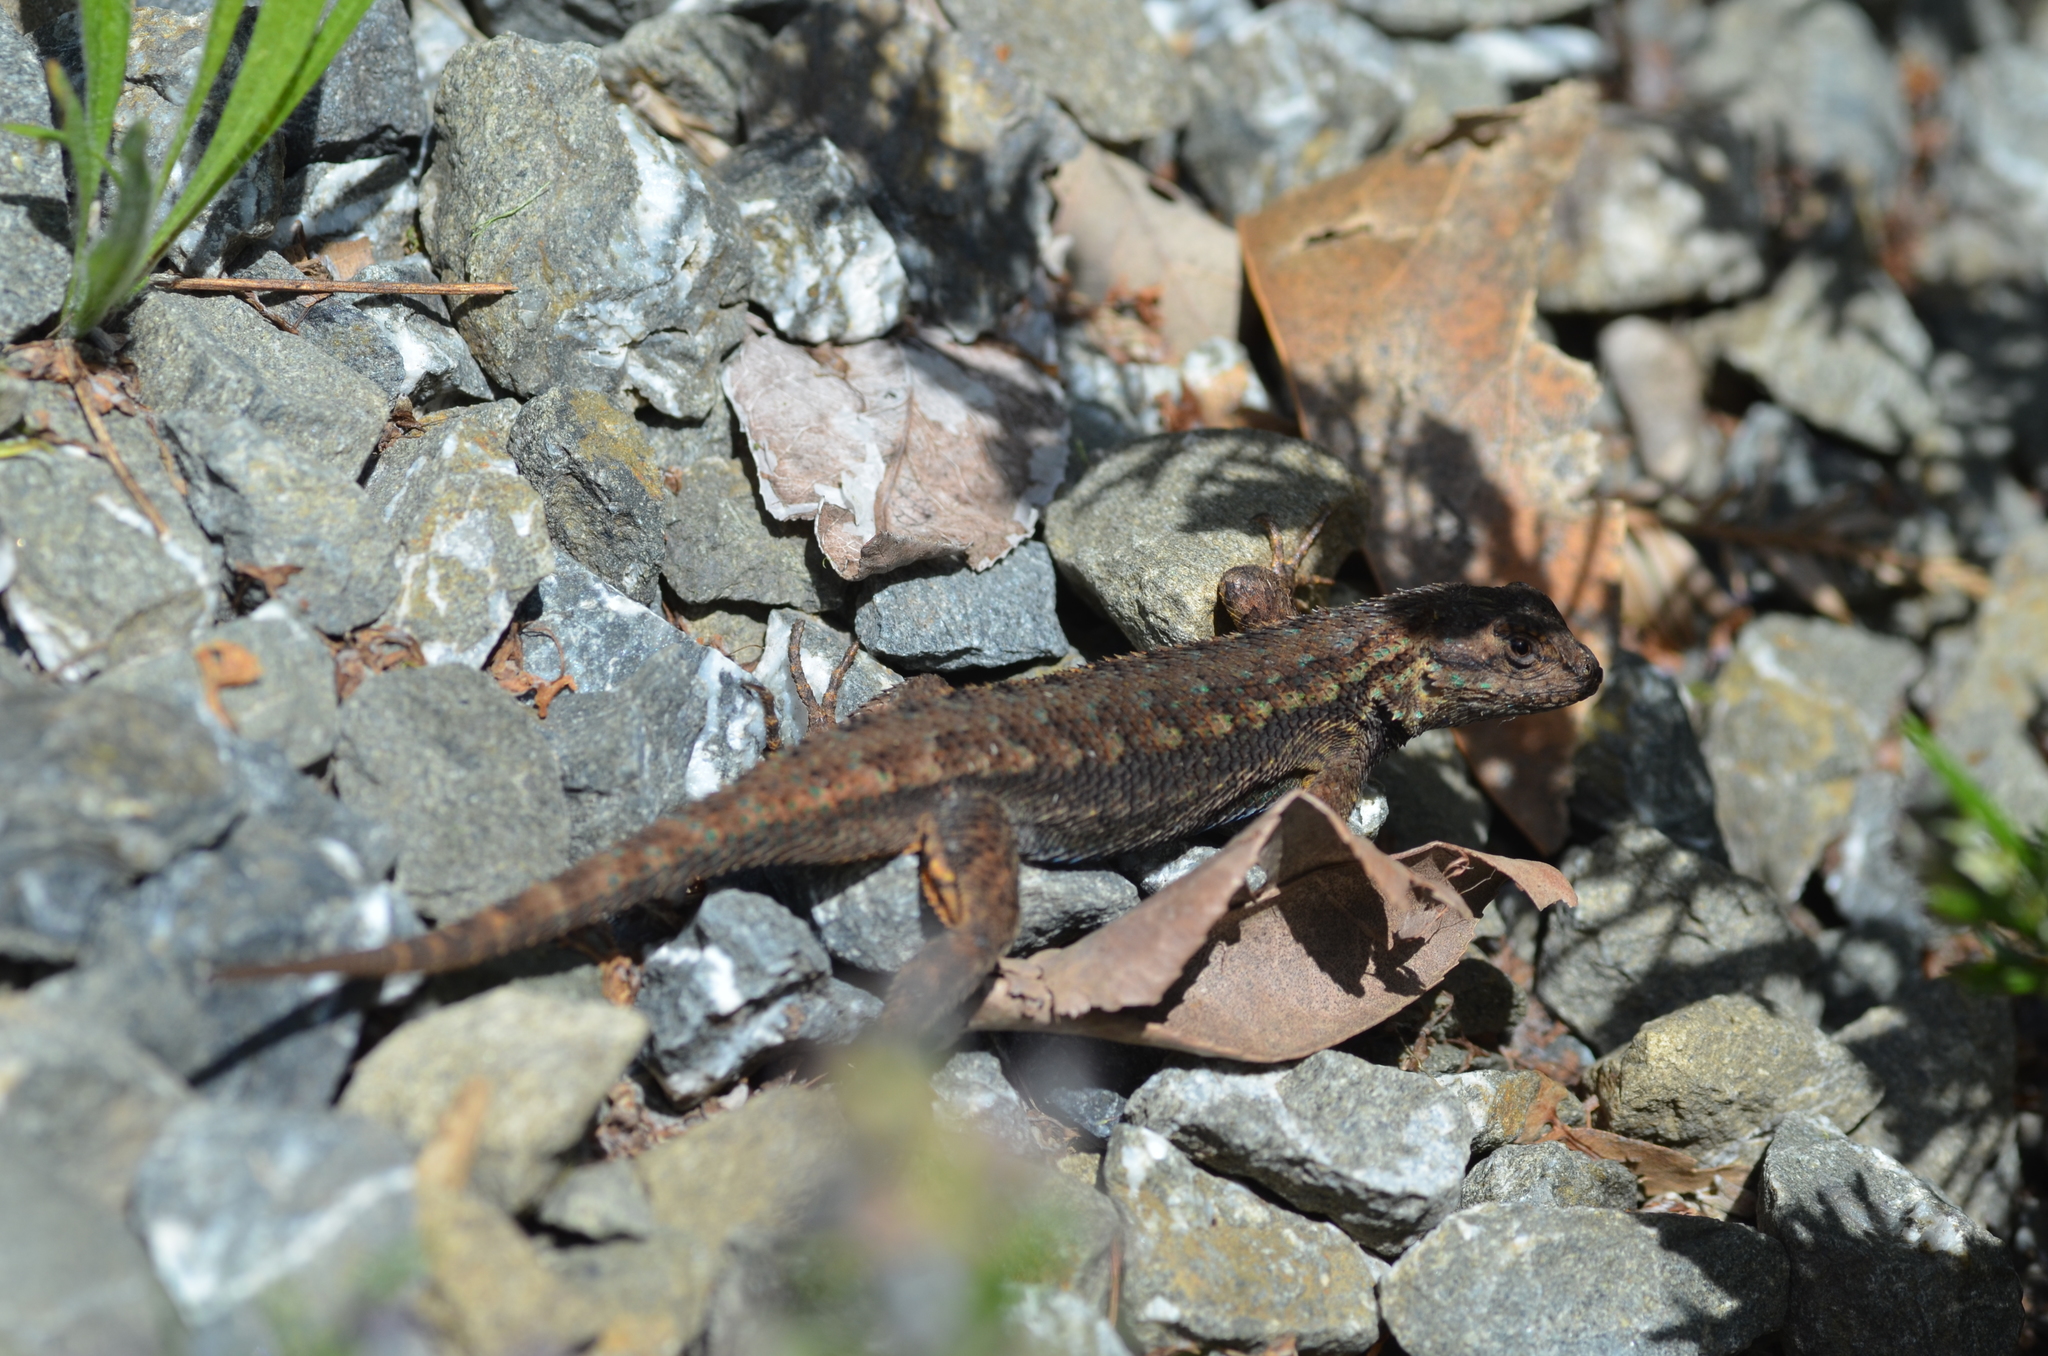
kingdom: Animalia
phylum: Chordata
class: Squamata
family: Phrynosomatidae
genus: Sceloporus
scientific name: Sceloporus occidentalis
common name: Western fence lizard
